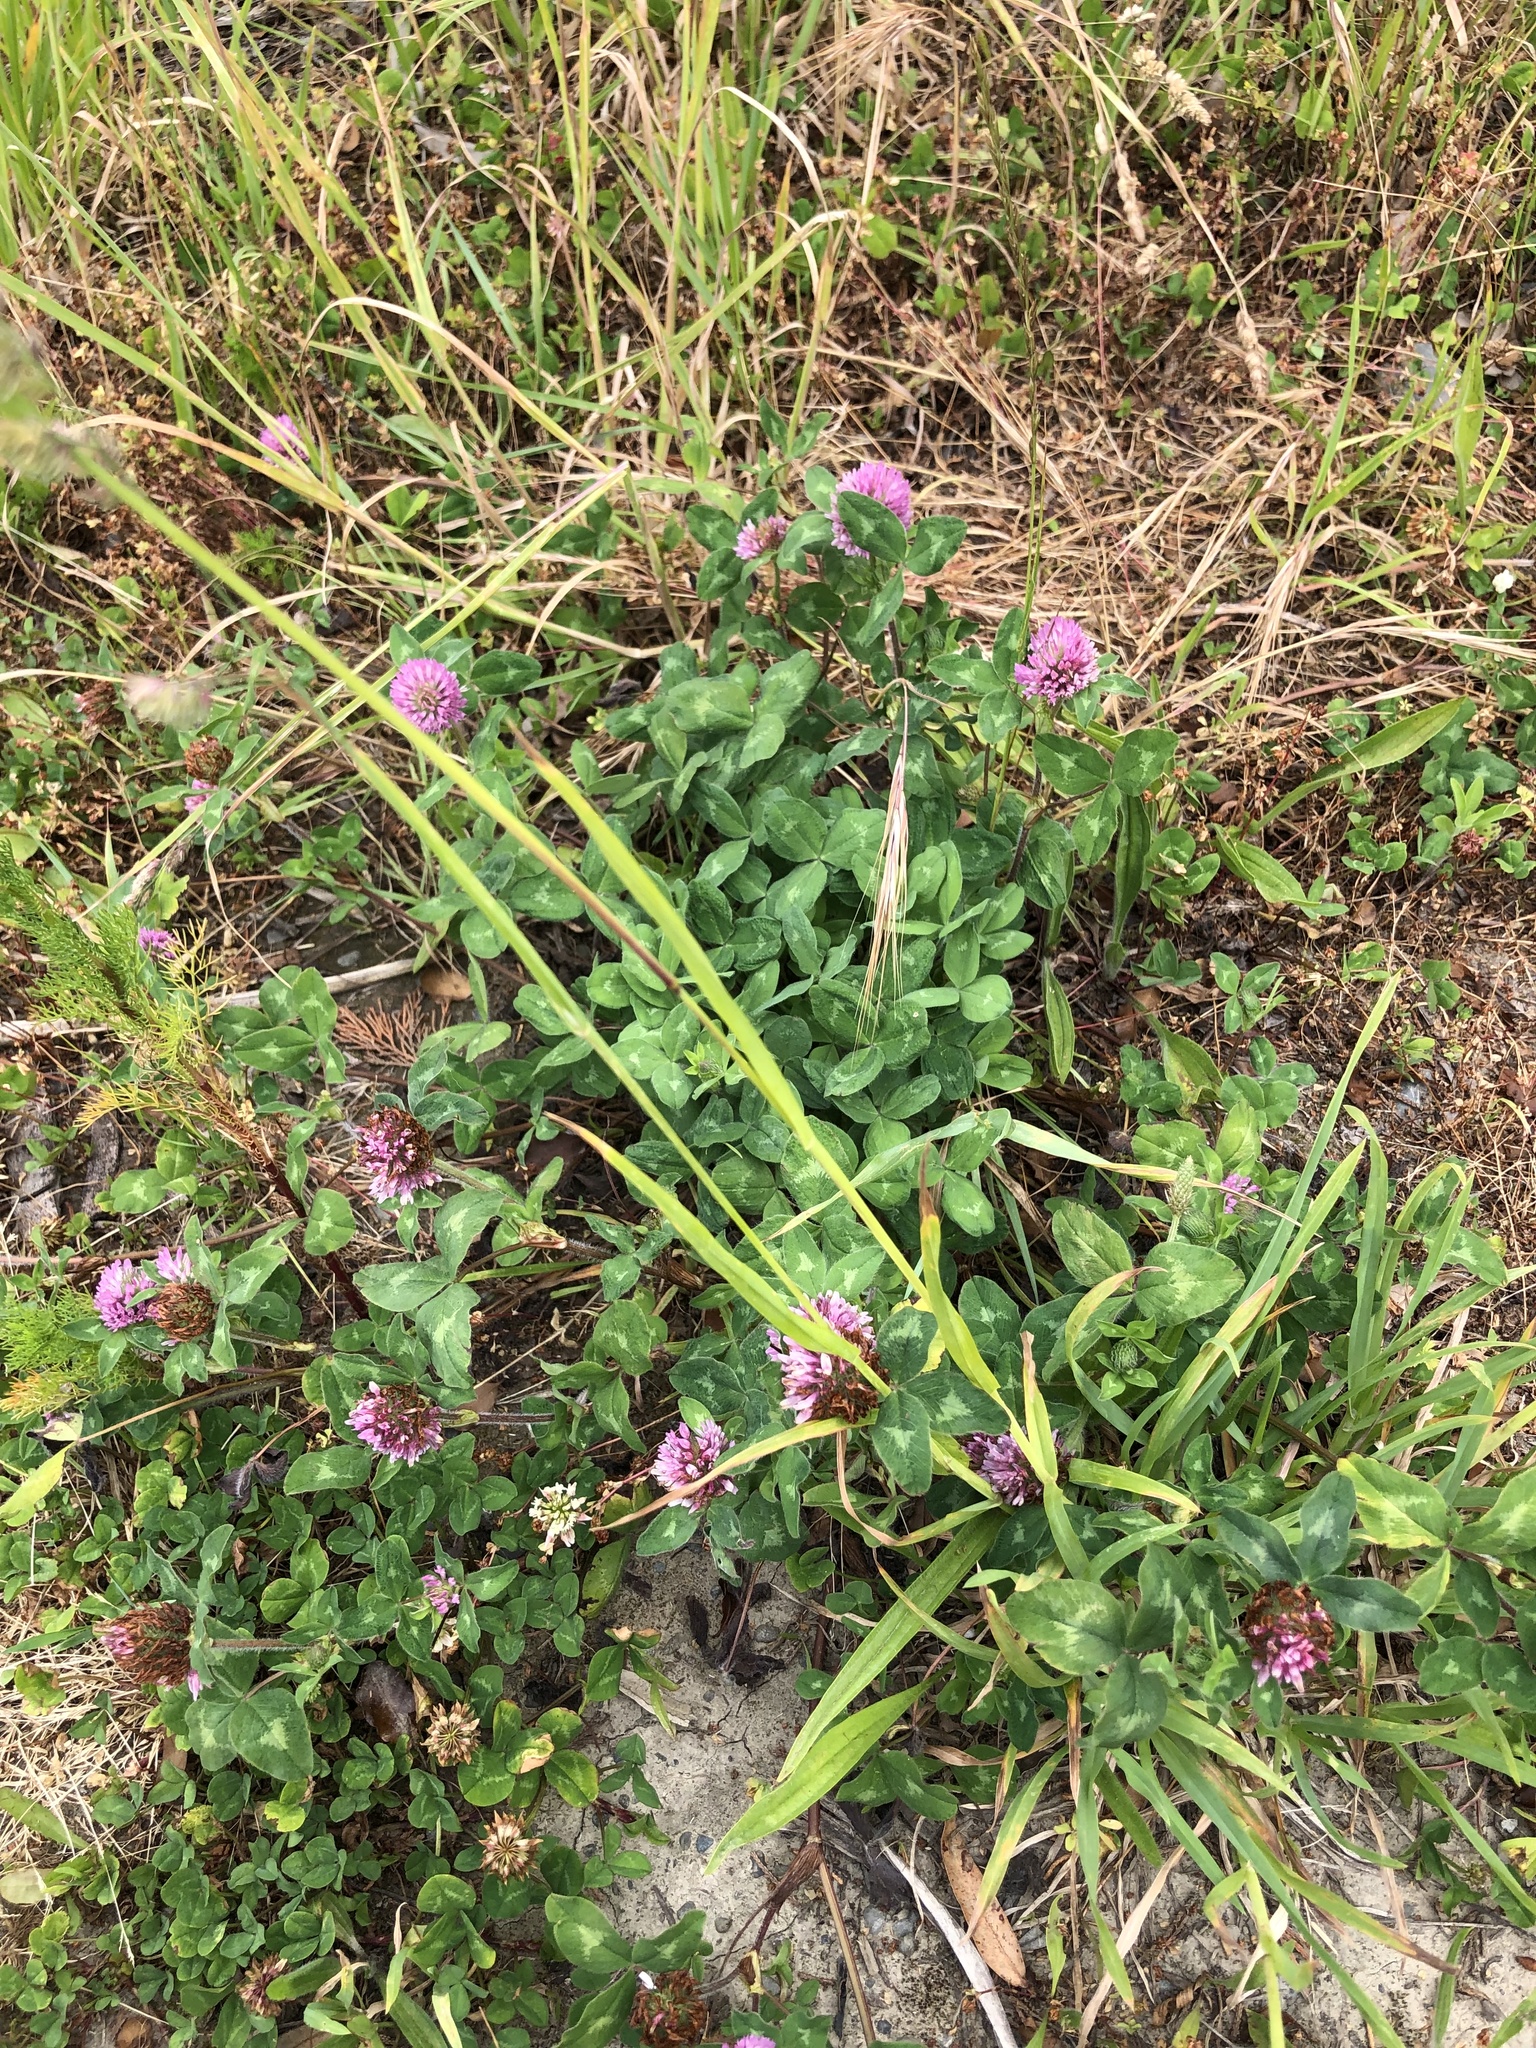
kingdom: Plantae
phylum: Tracheophyta
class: Magnoliopsida
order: Fabales
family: Fabaceae
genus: Trifolium
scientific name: Trifolium pratense
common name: Red clover
